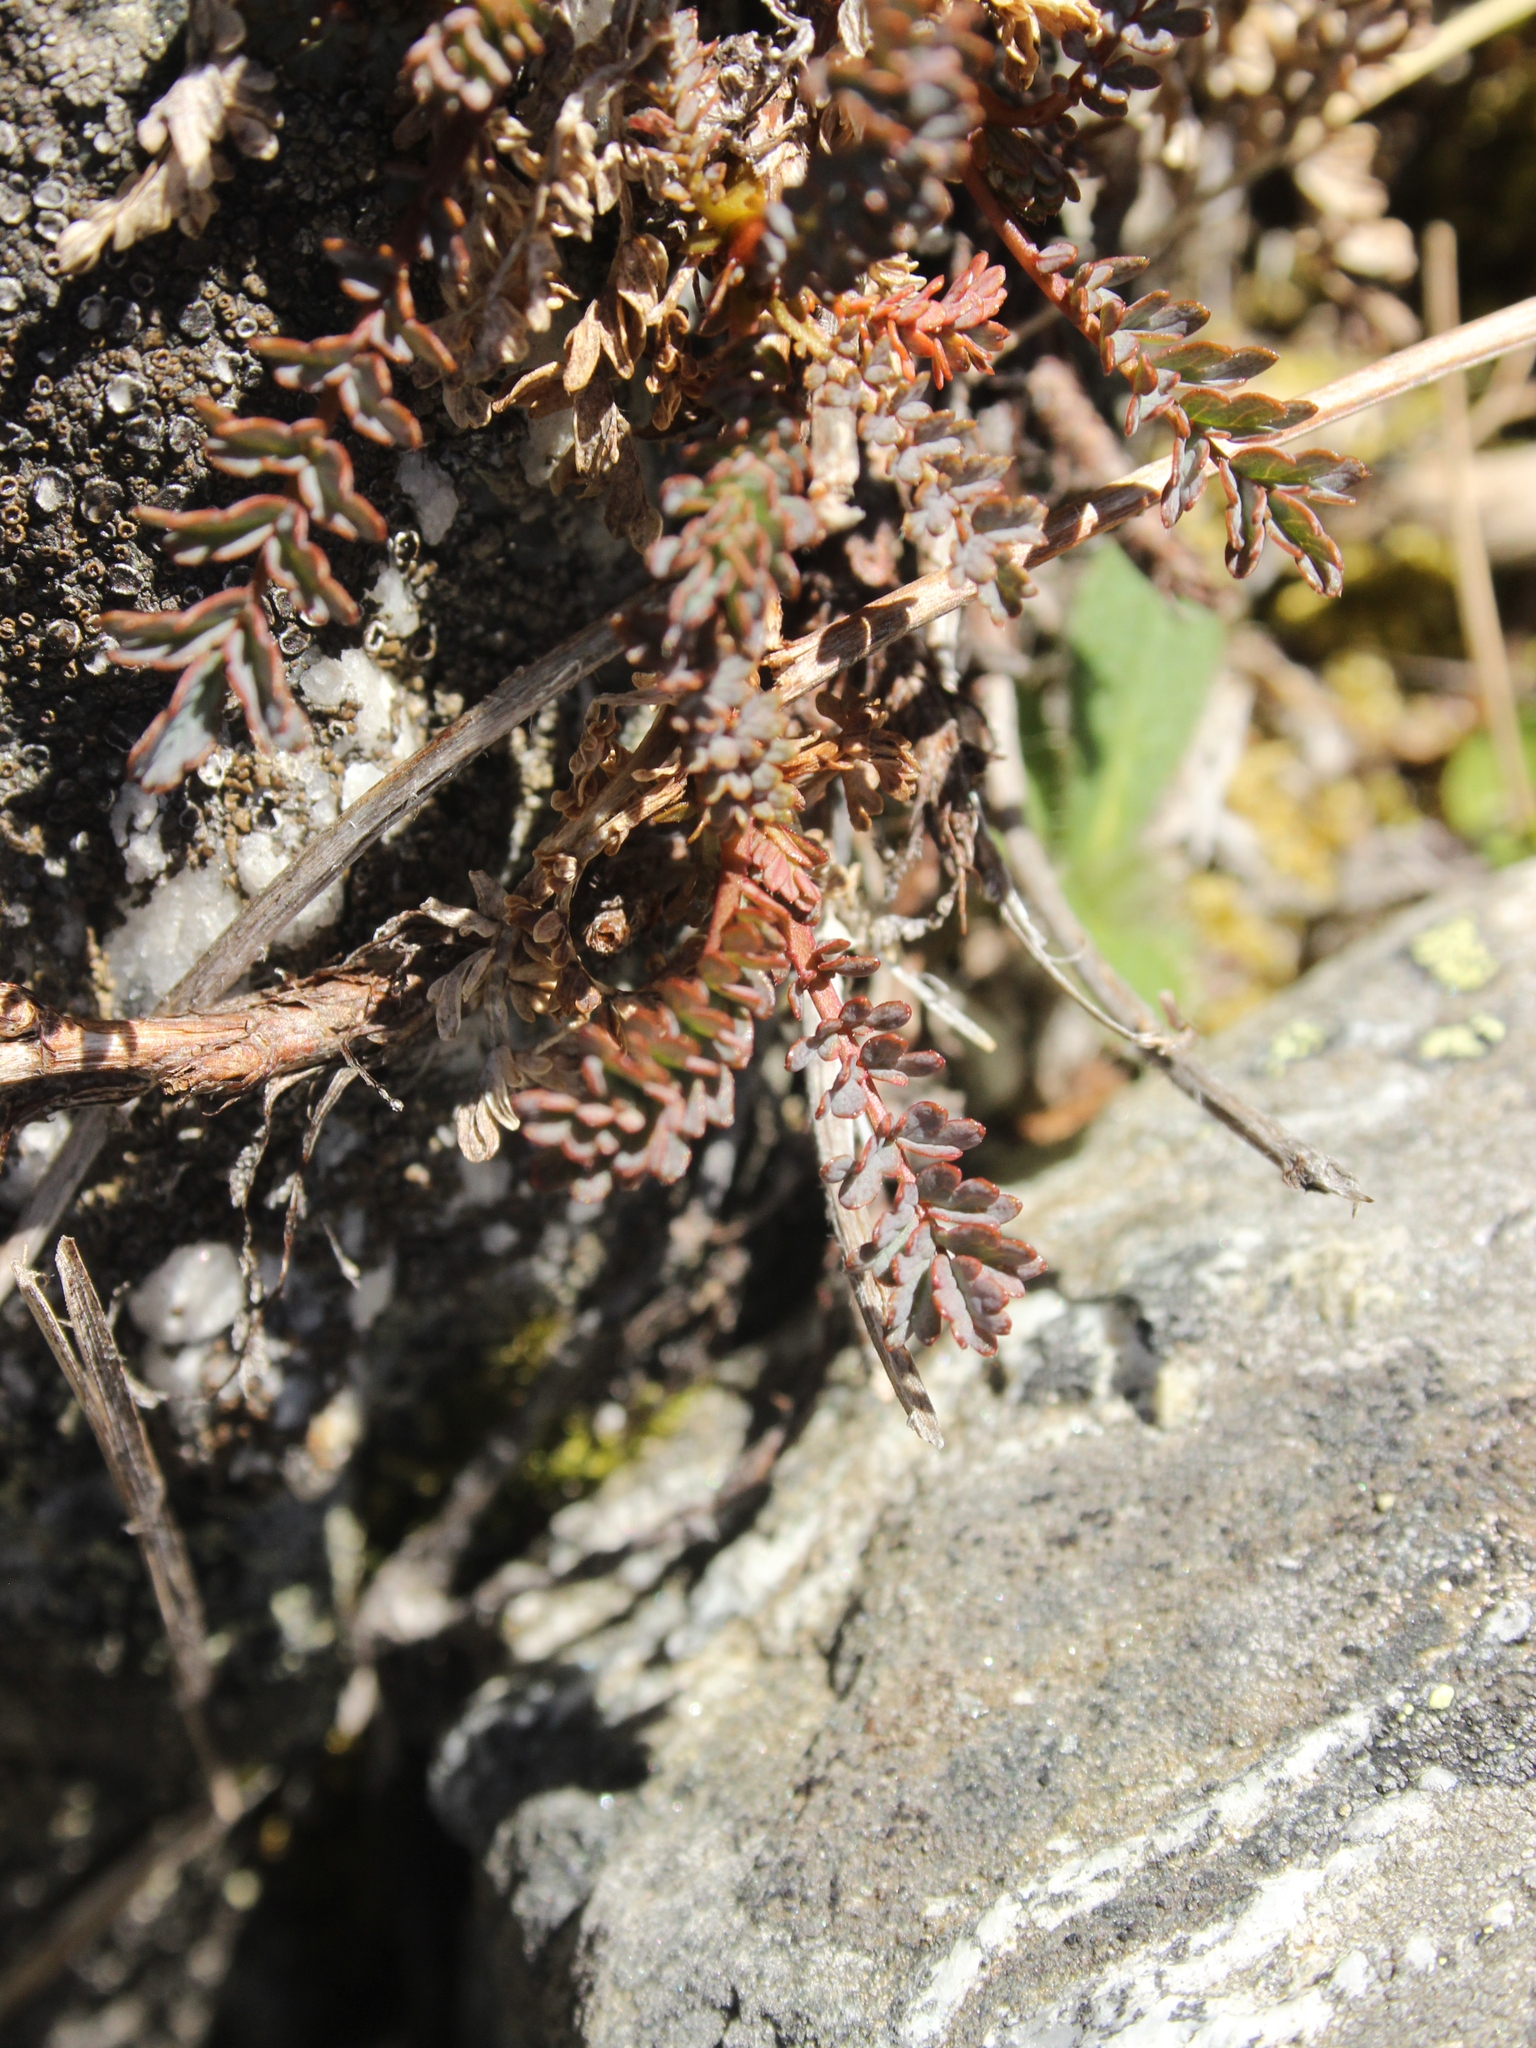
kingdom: Plantae
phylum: Tracheophyta
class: Magnoliopsida
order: Rosales
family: Rosaceae
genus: Acaena
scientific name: Acaena saccaticupula
